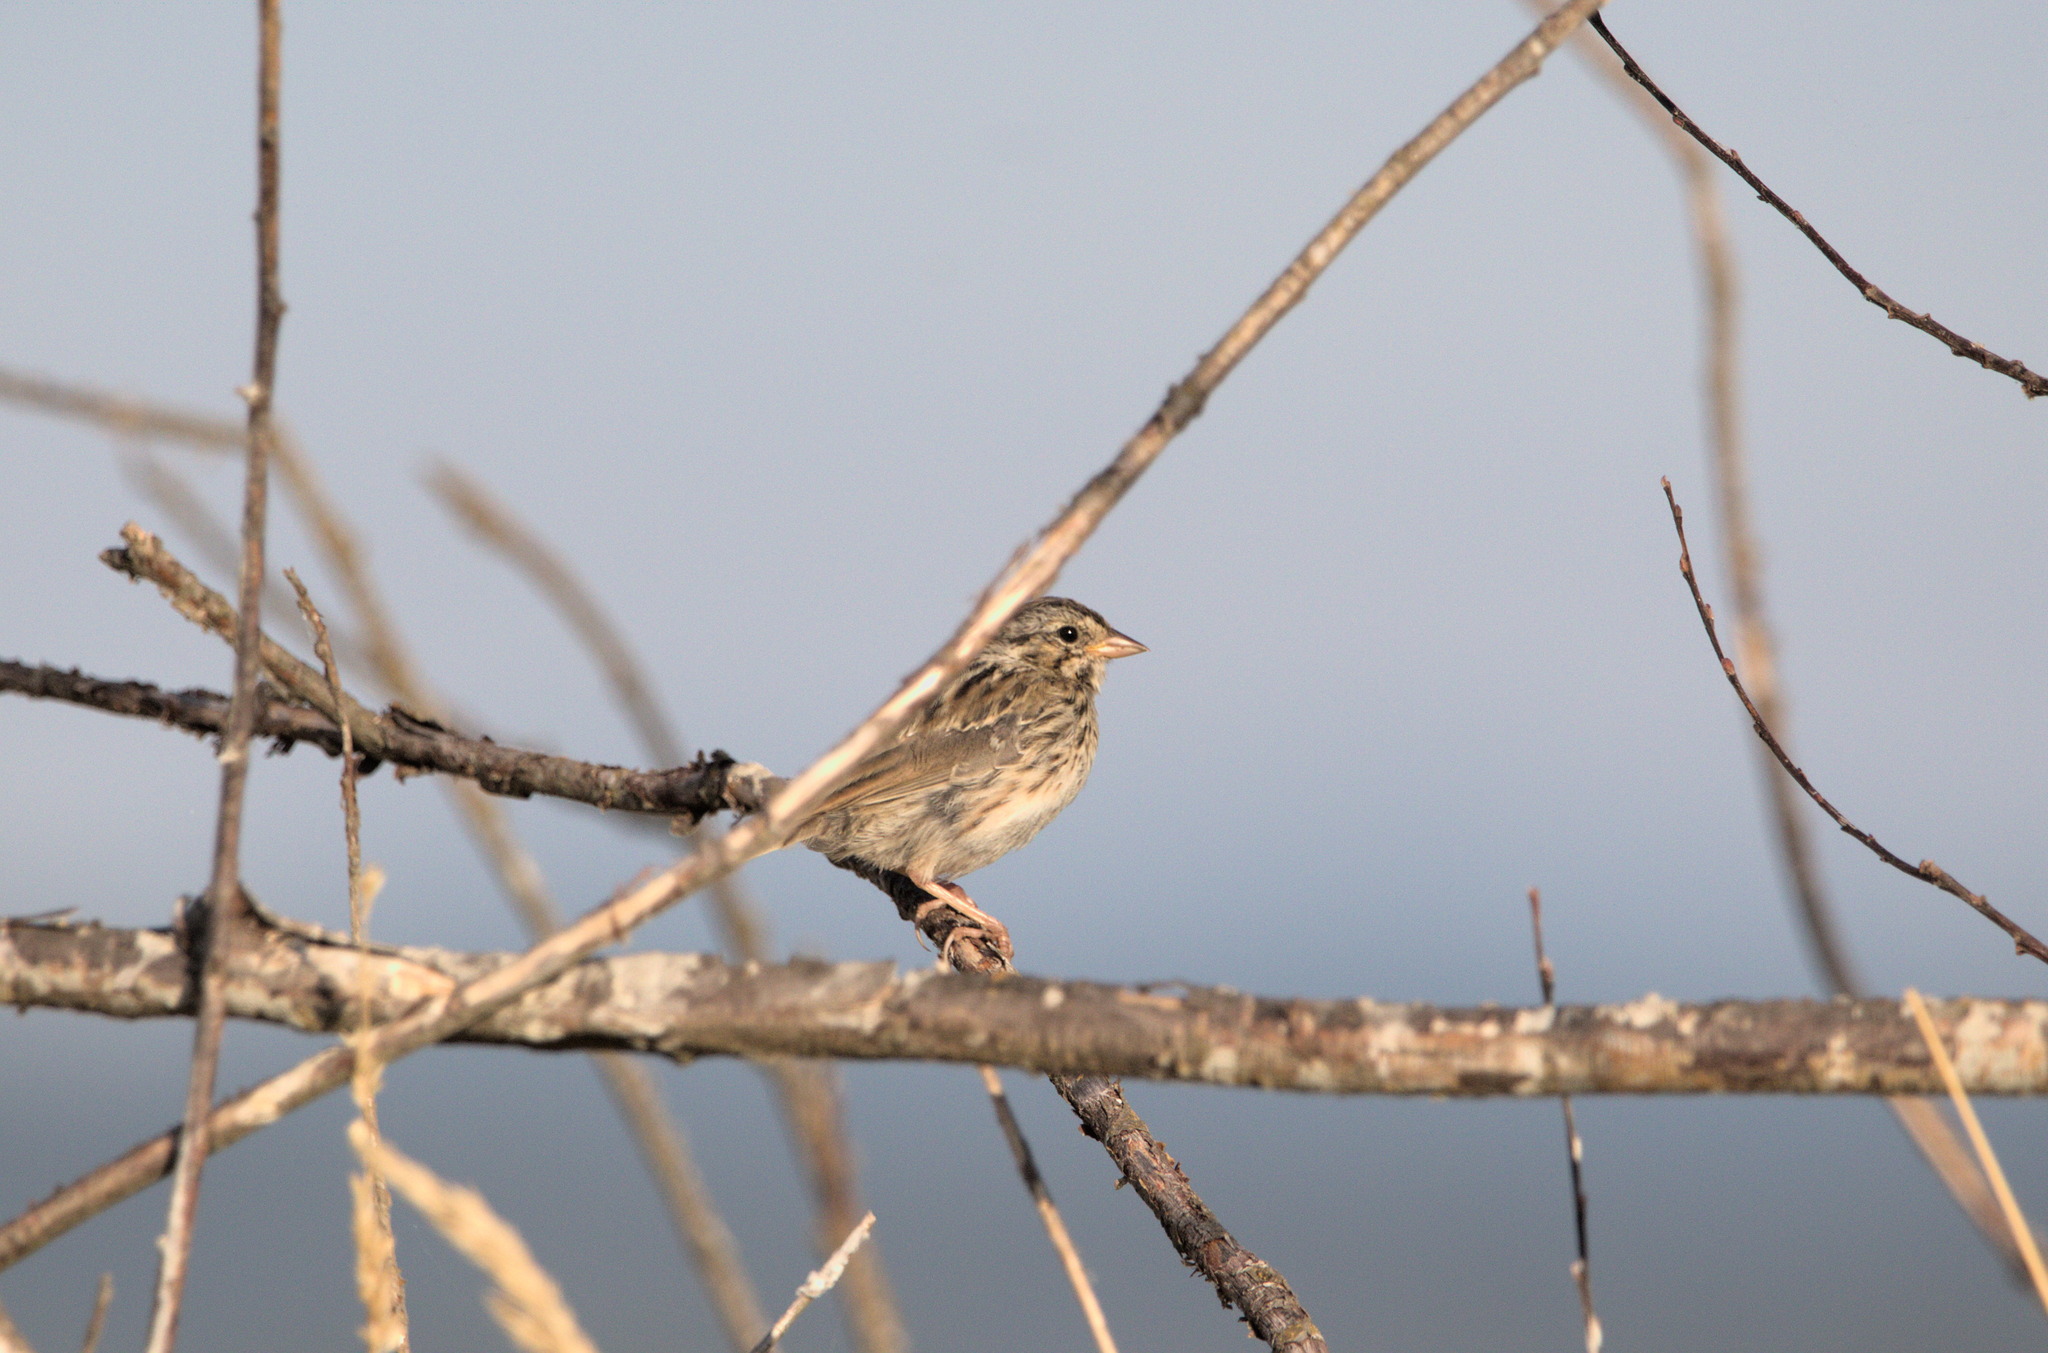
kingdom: Animalia
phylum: Chordata
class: Aves
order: Passeriformes
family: Passerellidae
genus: Passerculus
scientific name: Passerculus sandwichensis
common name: Savannah sparrow
